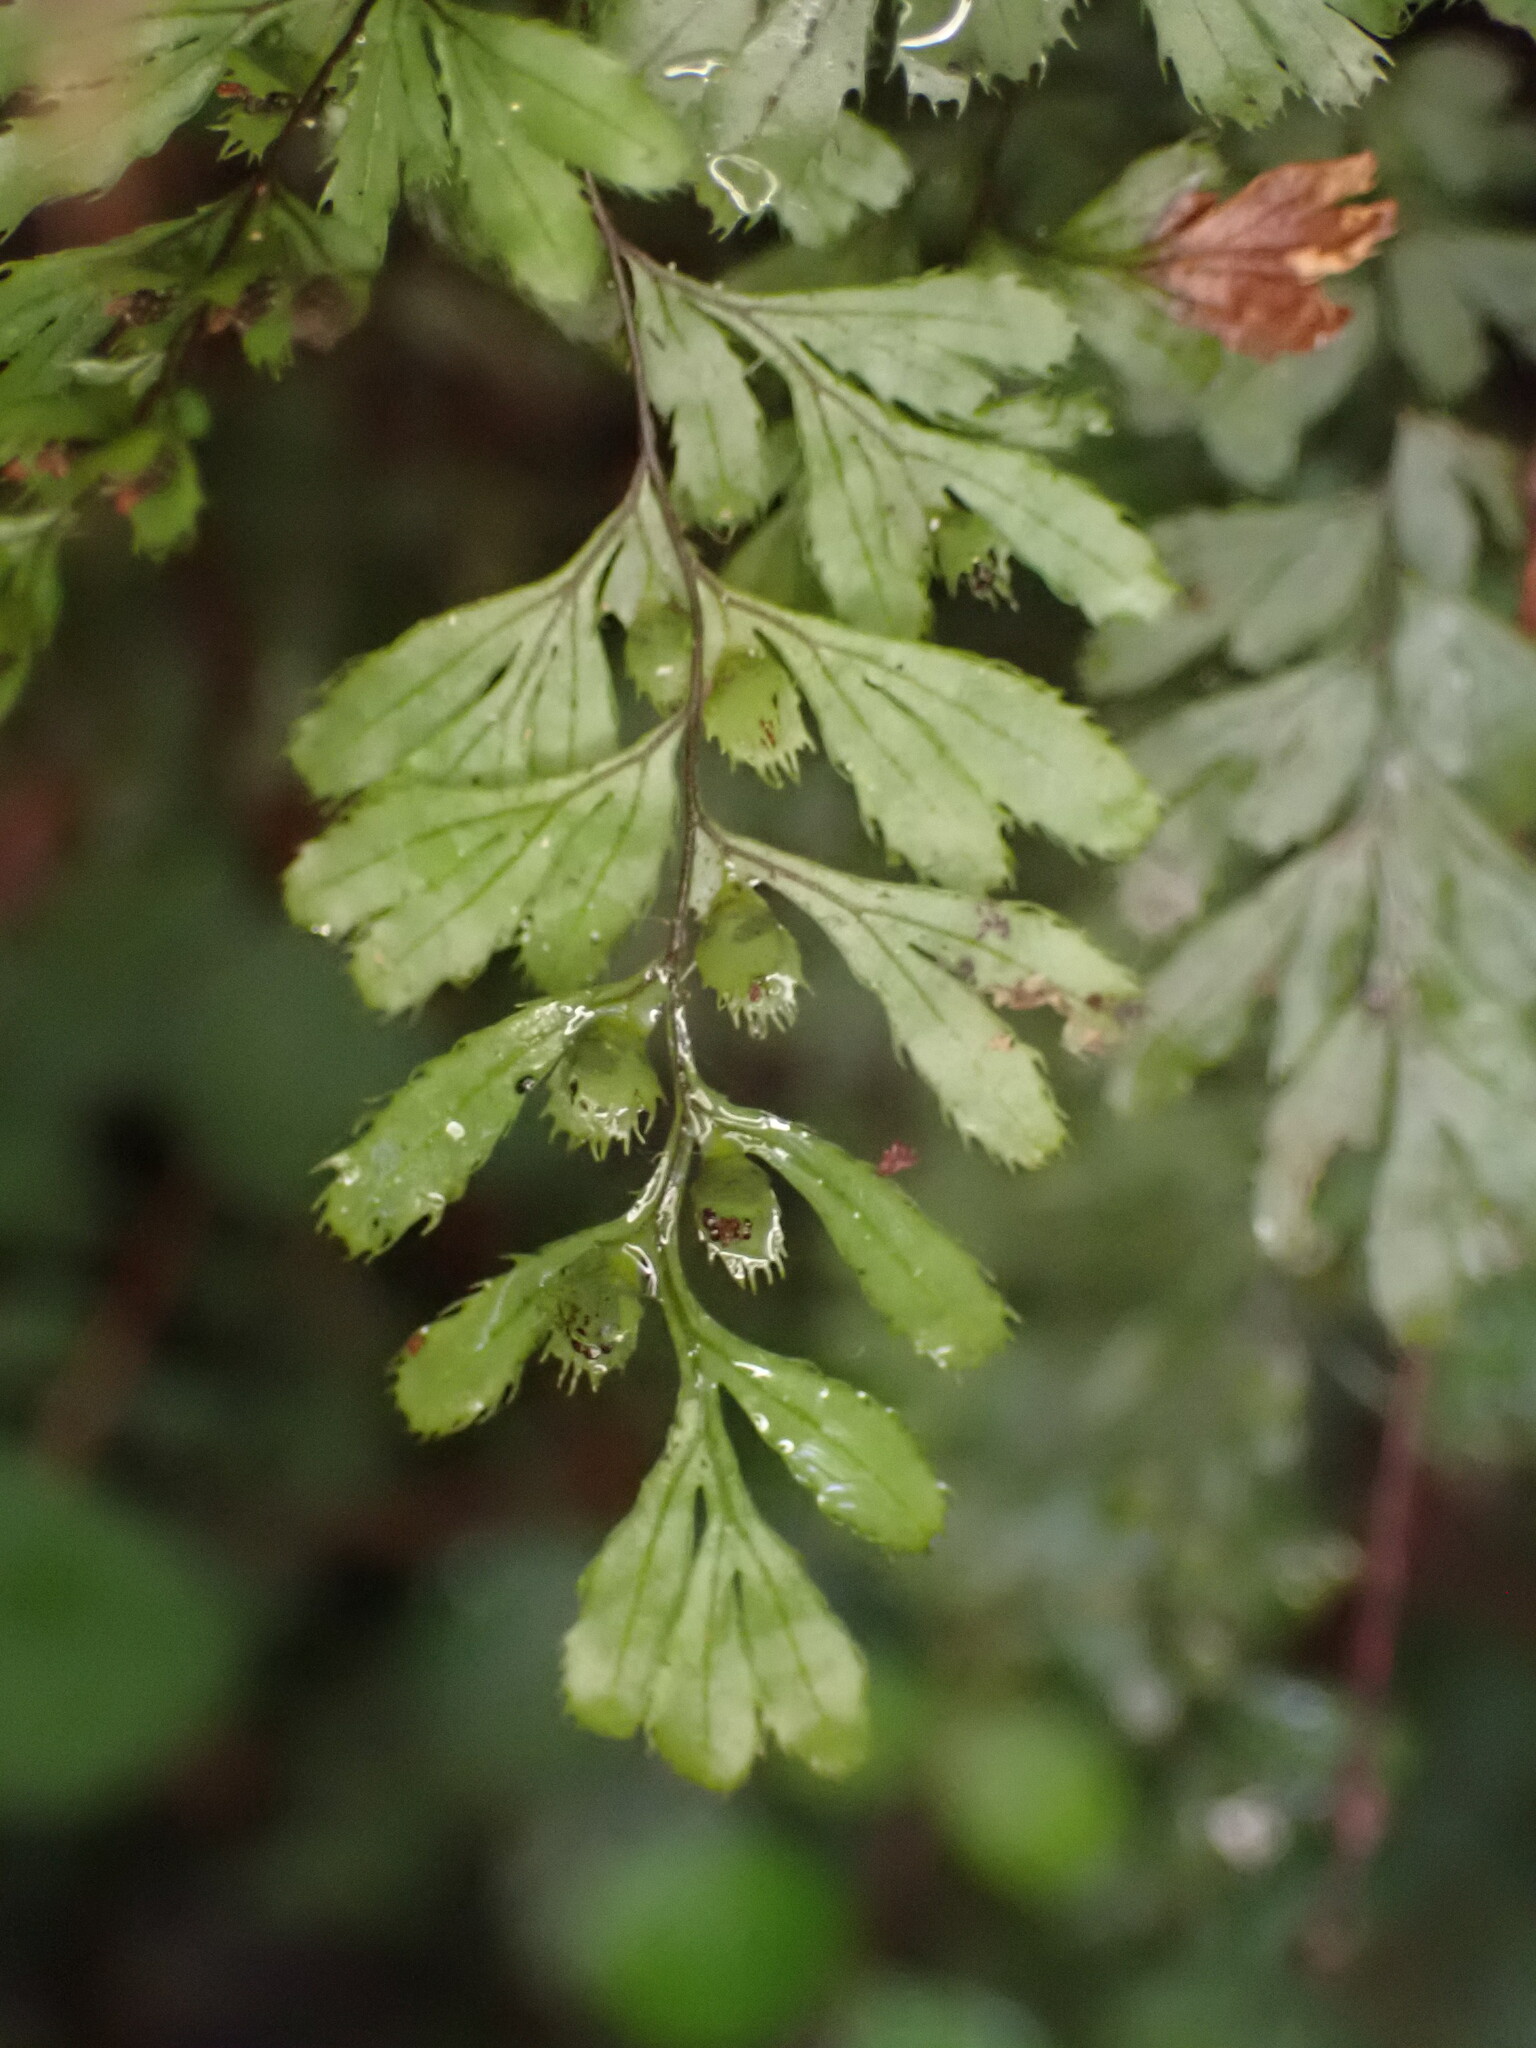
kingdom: Plantae
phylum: Tracheophyta
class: Polypodiopsida
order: Hymenophyllales
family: Hymenophyllaceae
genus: Hymenophyllum
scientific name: Hymenophyllum revolutum
